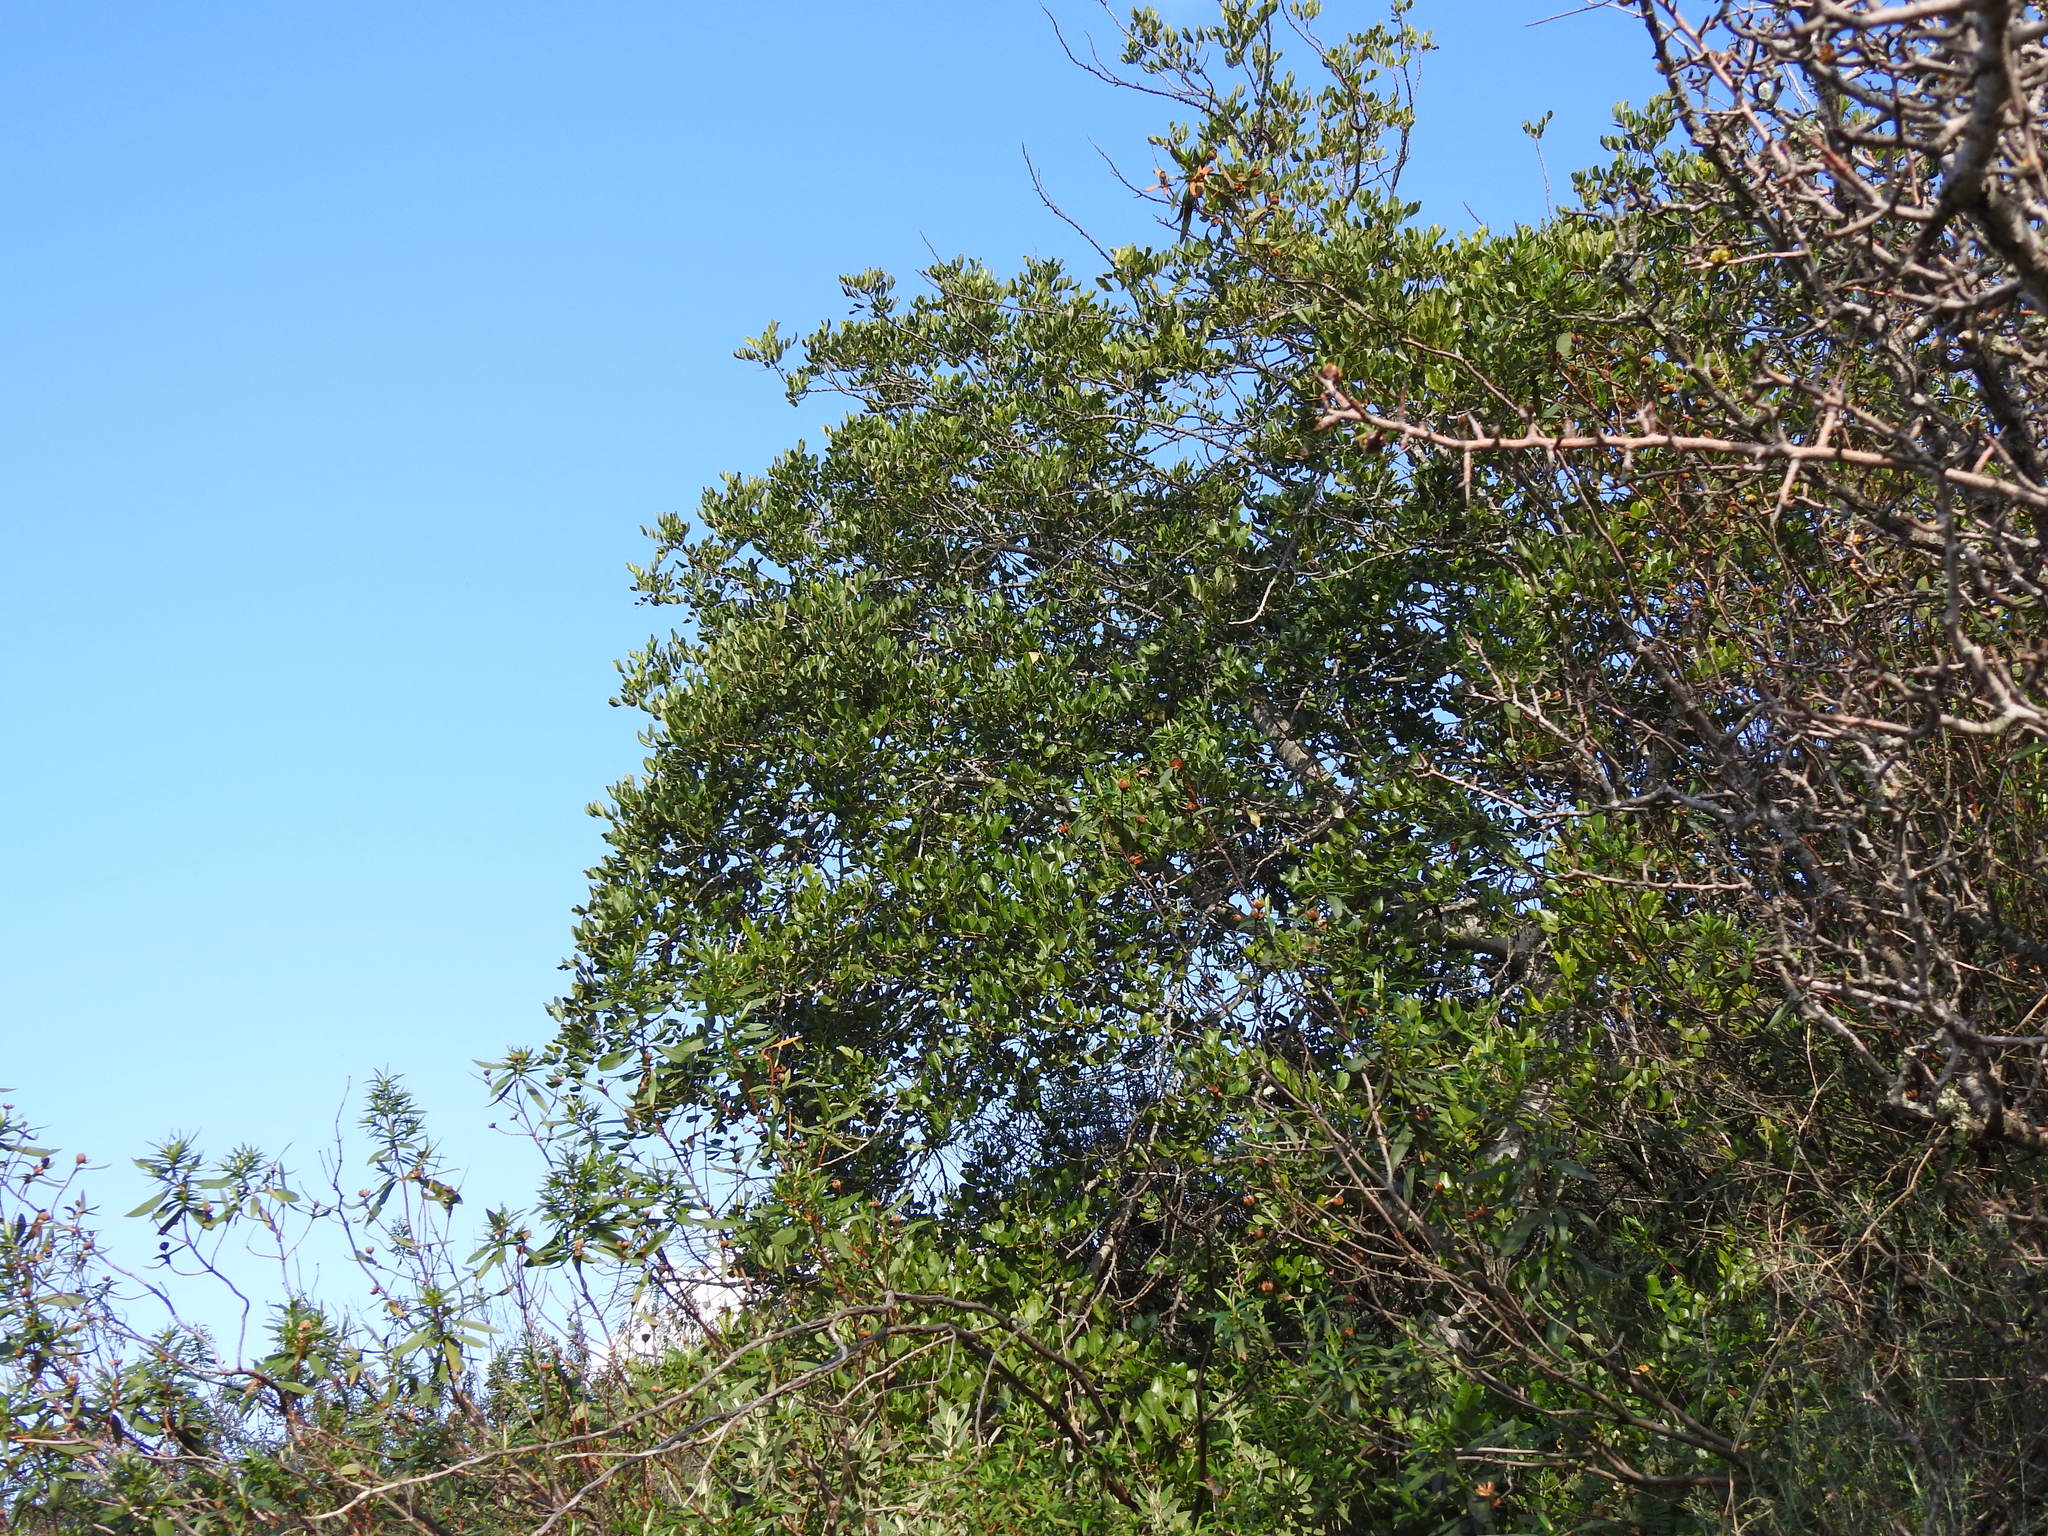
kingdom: Plantae
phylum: Tracheophyta
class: Magnoliopsida
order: Fabales
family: Fabaceae
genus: Ceratonia
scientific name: Ceratonia siliqua
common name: Carob
